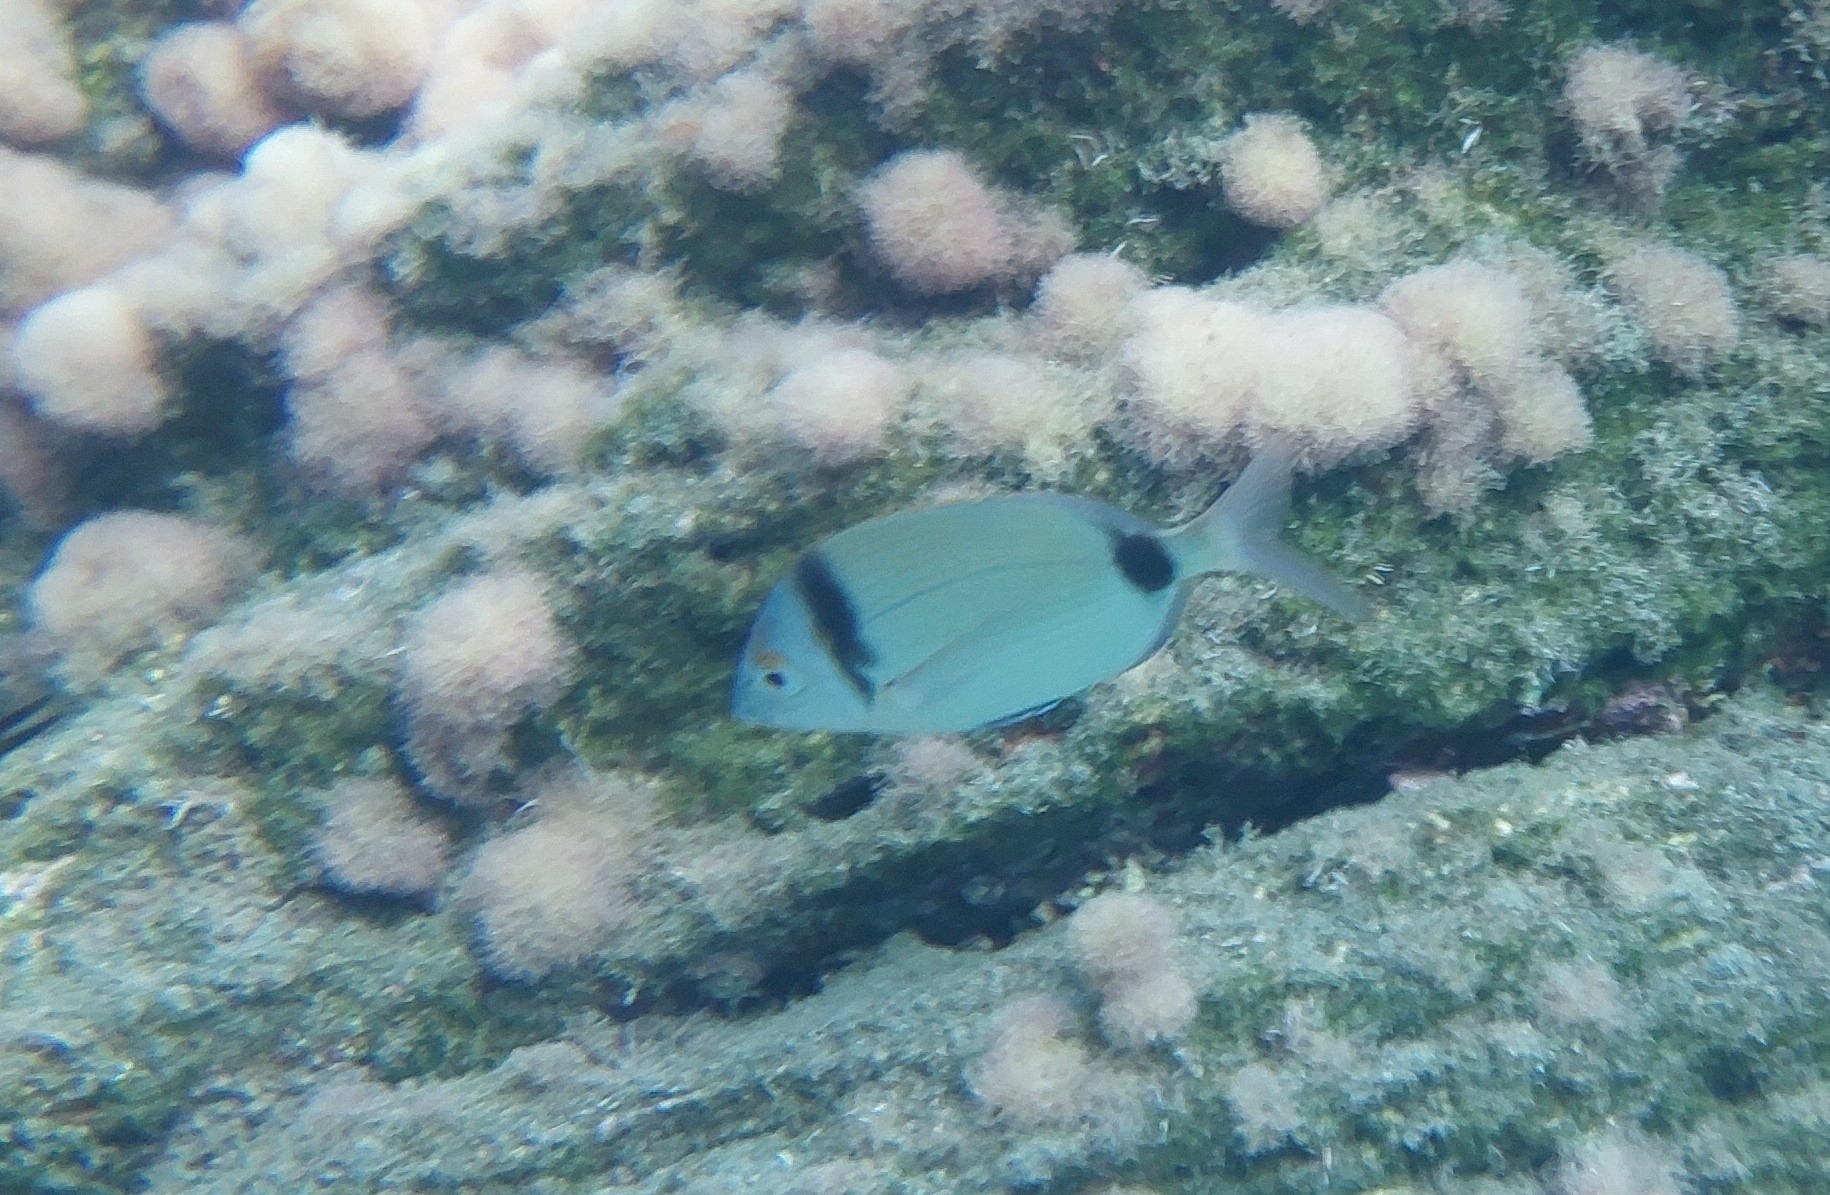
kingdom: Animalia
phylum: Chordata
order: Perciformes
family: Sparidae
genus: Diplodus
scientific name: Diplodus vulgaris
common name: Common two-banded seabream
